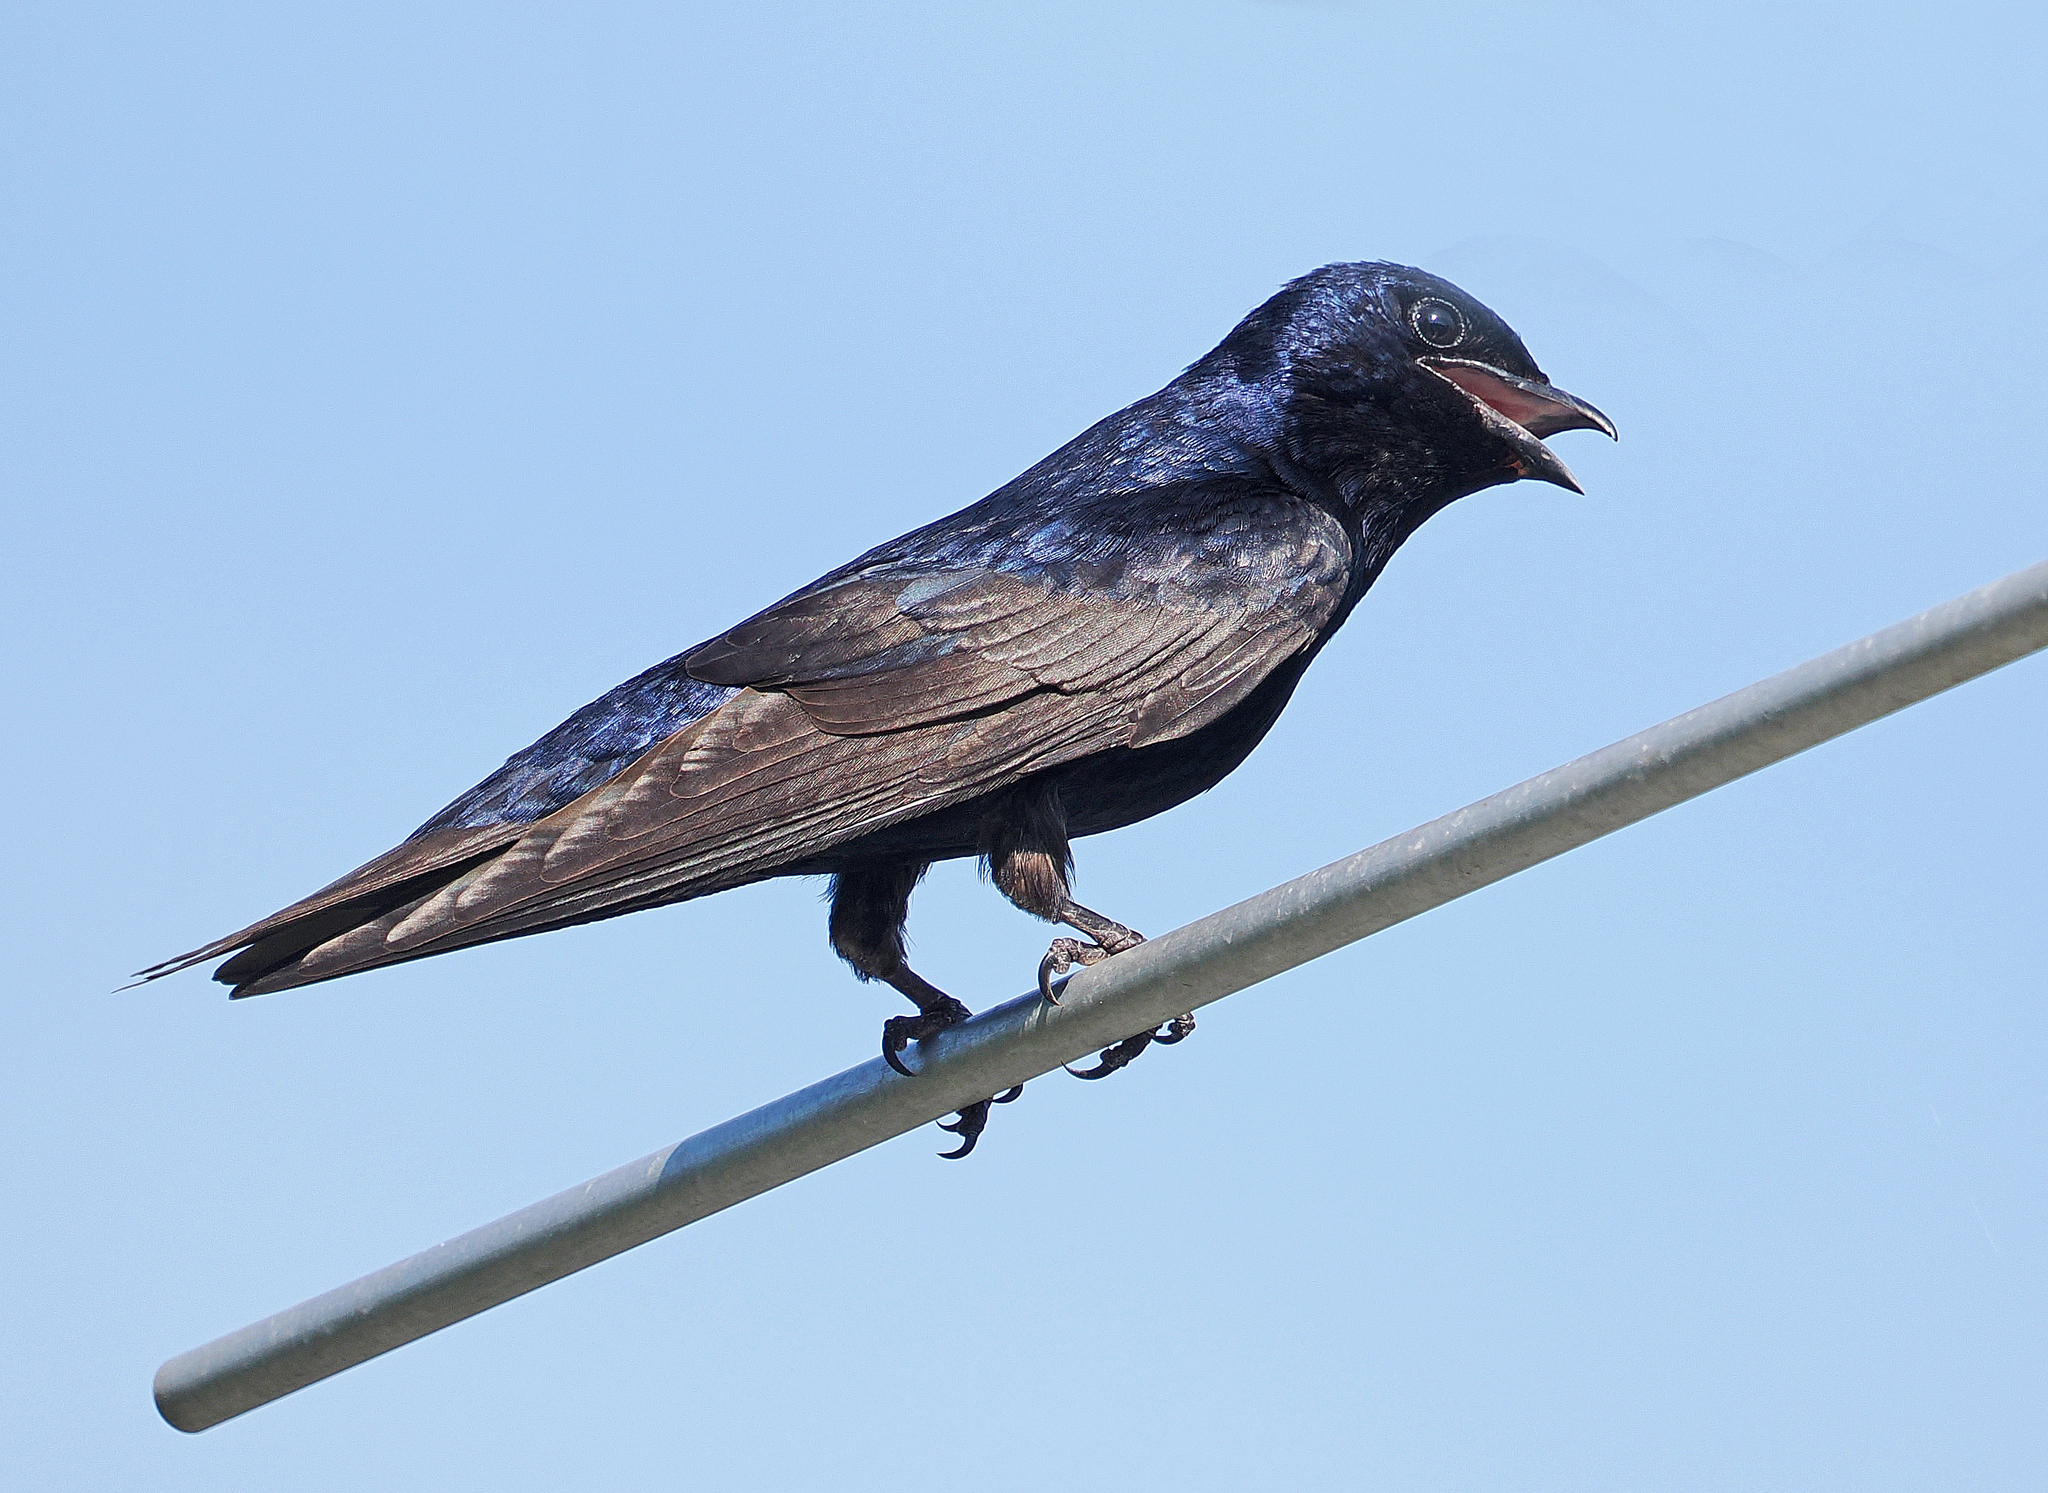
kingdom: Animalia
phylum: Chordata
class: Aves
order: Passeriformes
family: Hirundinidae
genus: Progne
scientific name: Progne subis
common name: Purple martin
